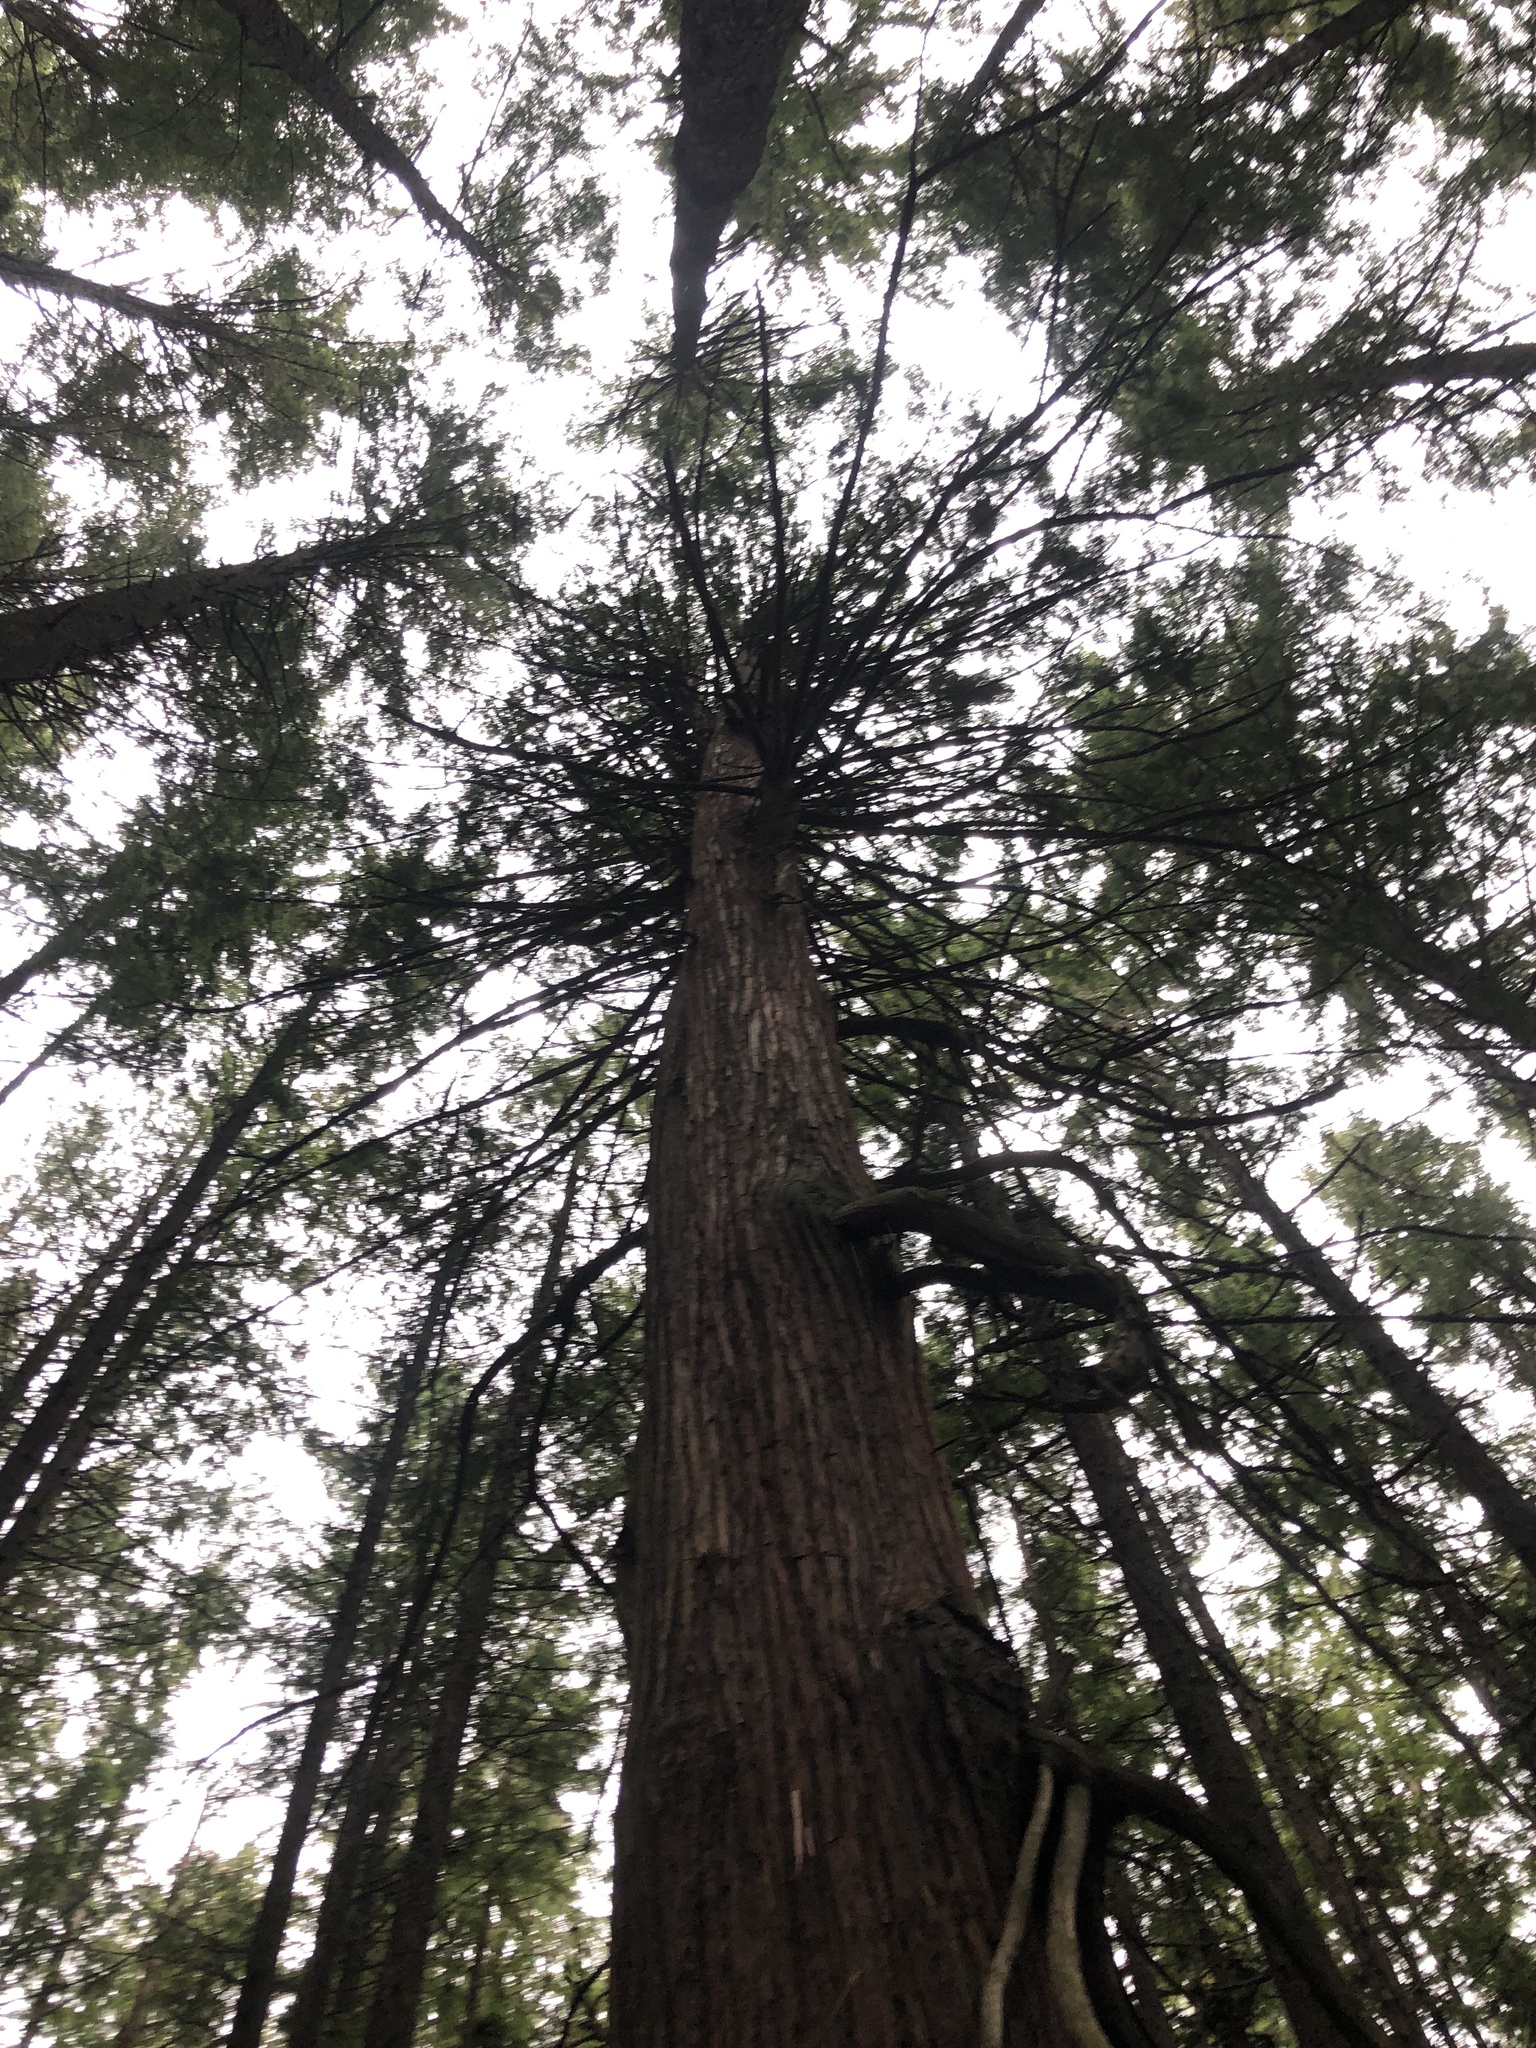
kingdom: Plantae
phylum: Tracheophyta
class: Pinopsida
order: Pinales
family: Cupressaceae
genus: Thuja
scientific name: Thuja plicata
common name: Western red-cedar
